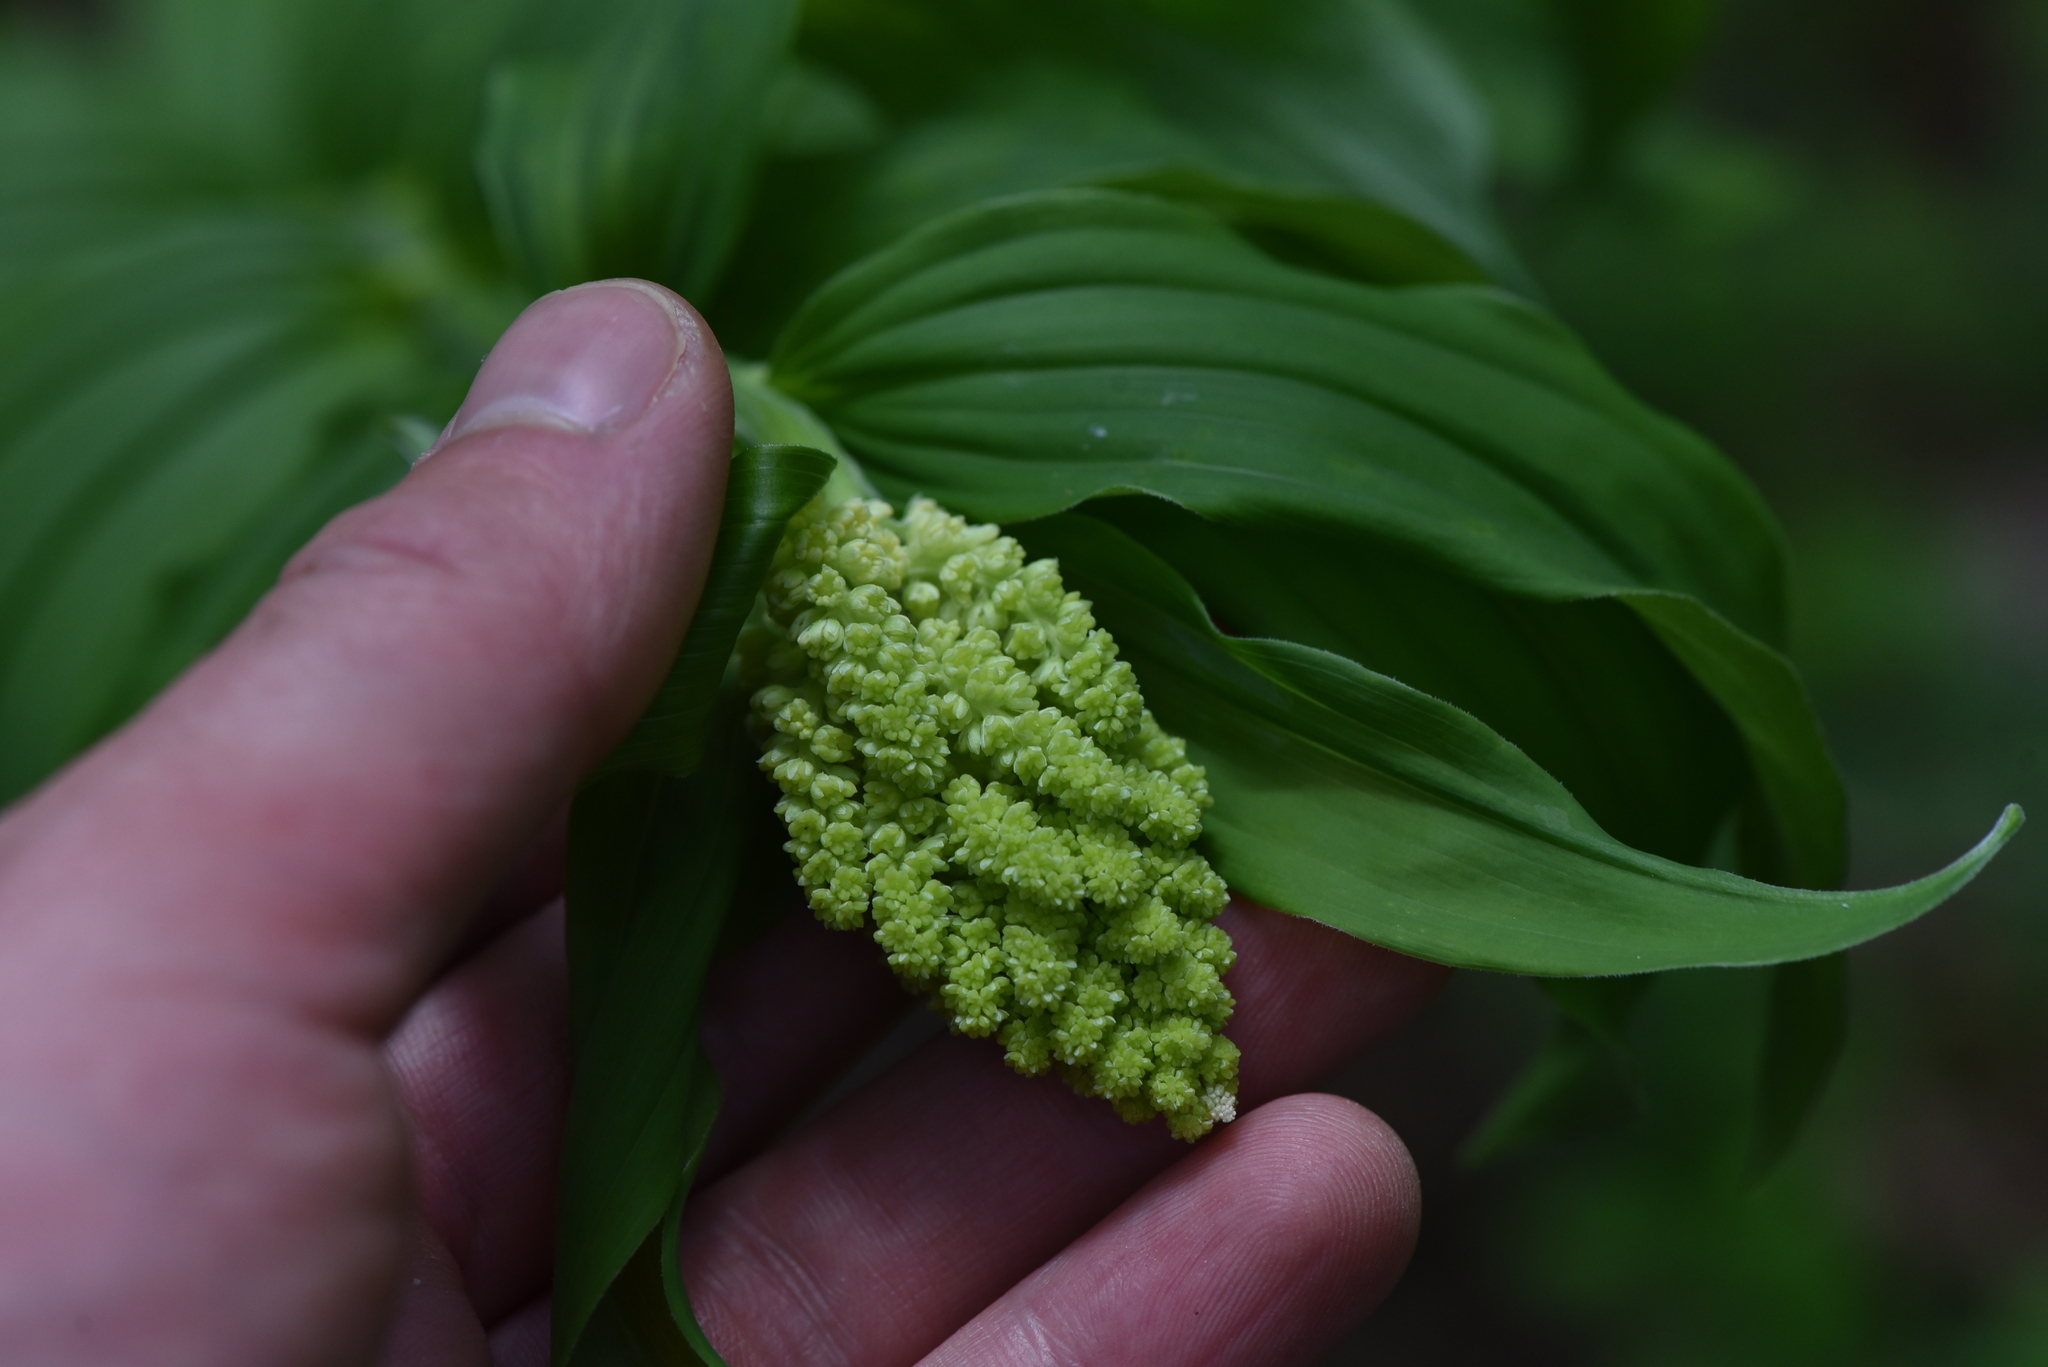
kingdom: Plantae
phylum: Tracheophyta
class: Liliopsida
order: Asparagales
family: Asparagaceae
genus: Maianthemum
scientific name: Maianthemum racemosum
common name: False spikenard
